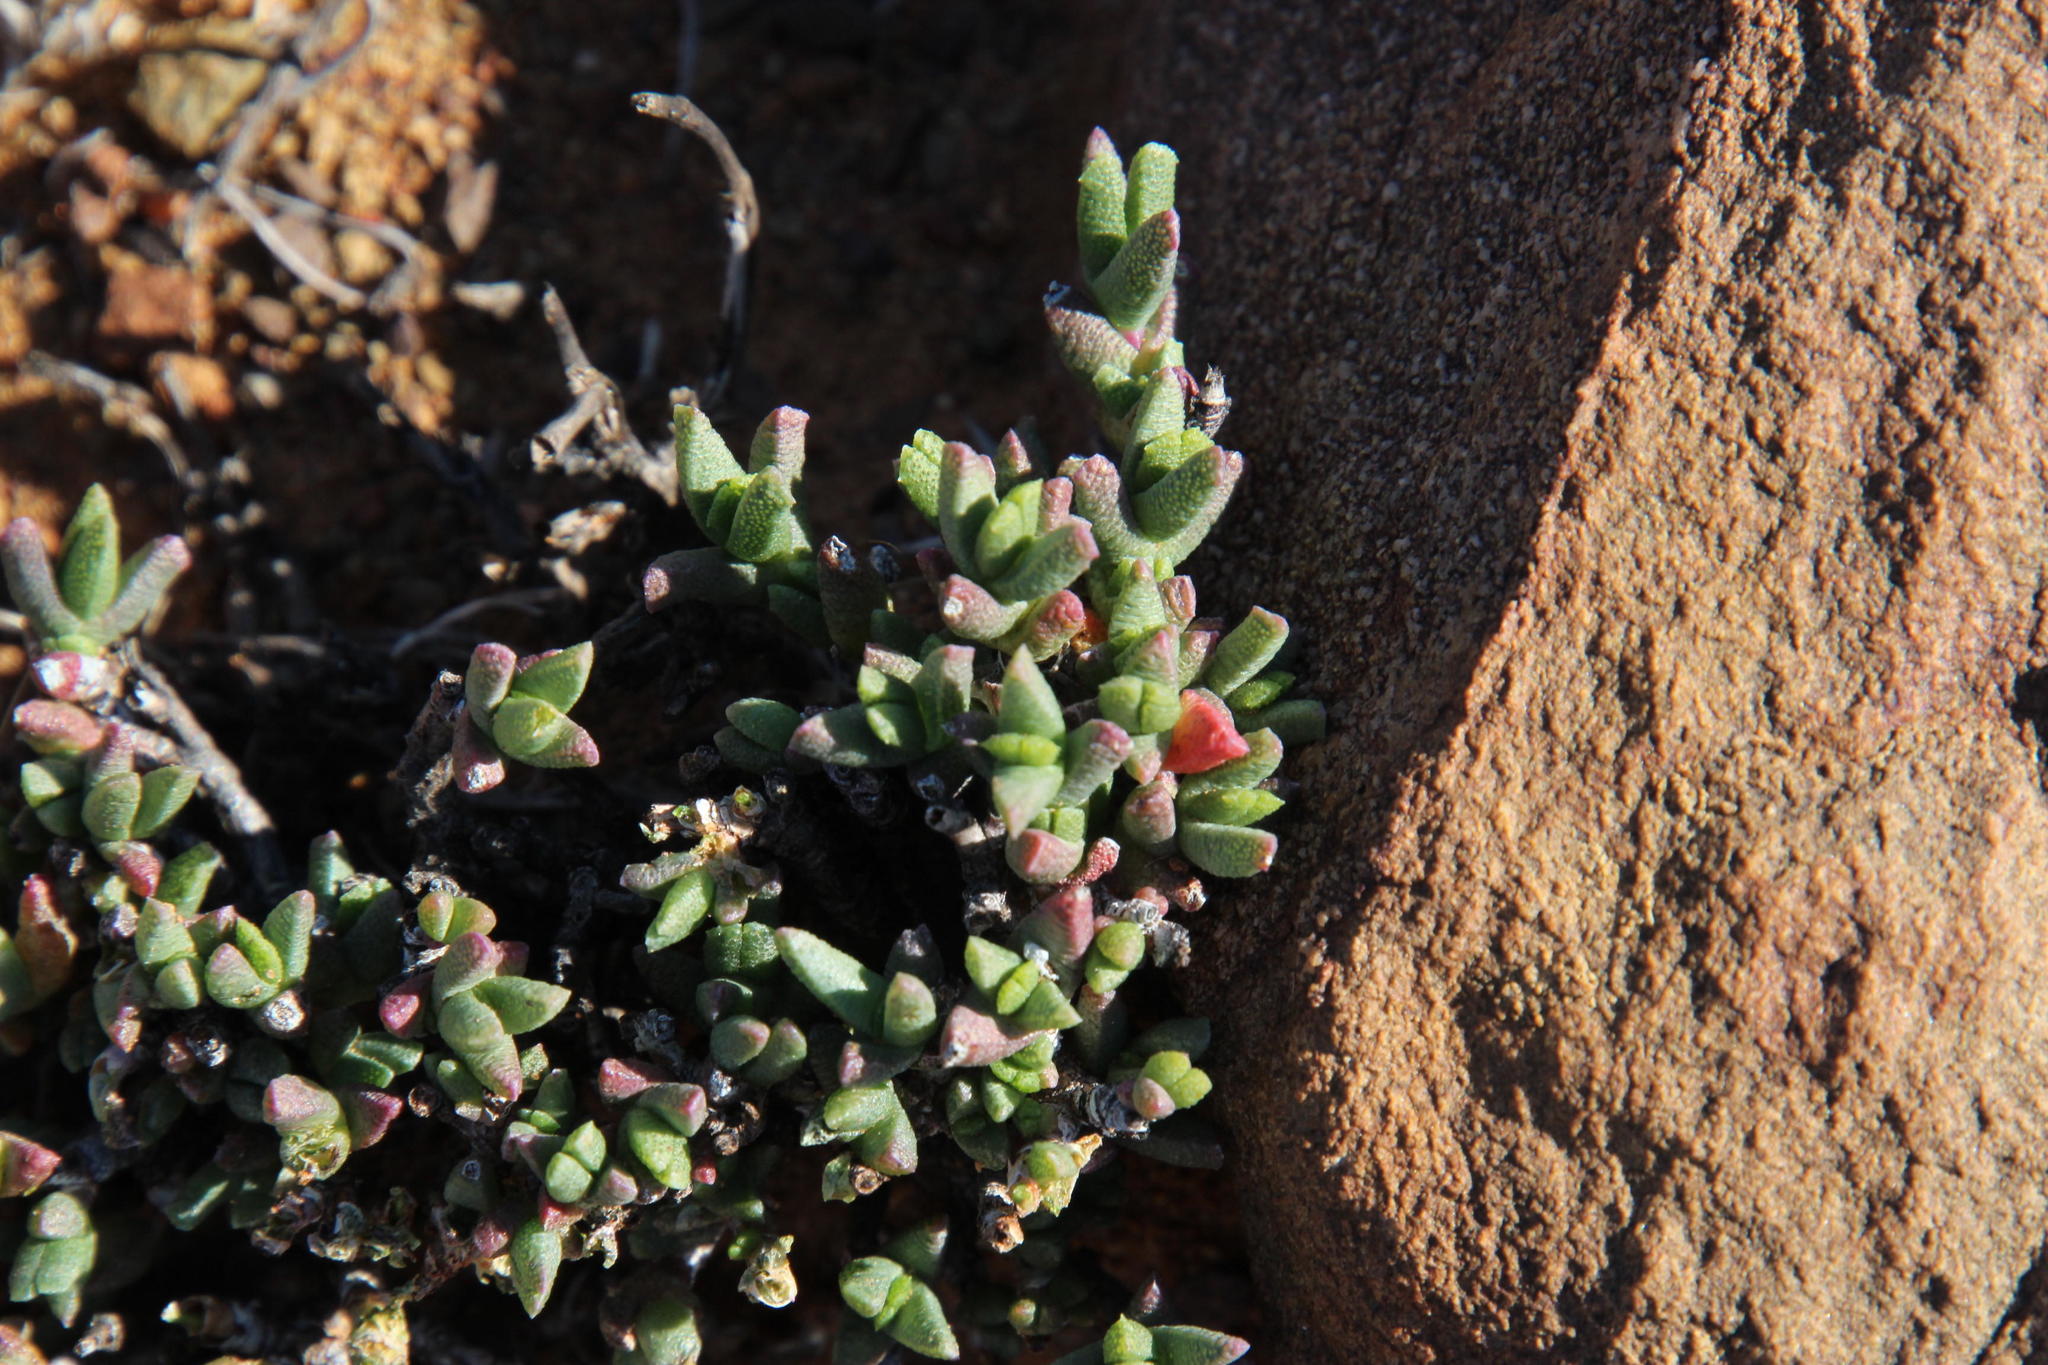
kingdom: Plantae
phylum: Tracheophyta
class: Magnoliopsida
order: Caryophyllales
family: Aizoaceae
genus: Dracophilus
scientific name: Dracophilus Chasmatophyllum stanleyi
